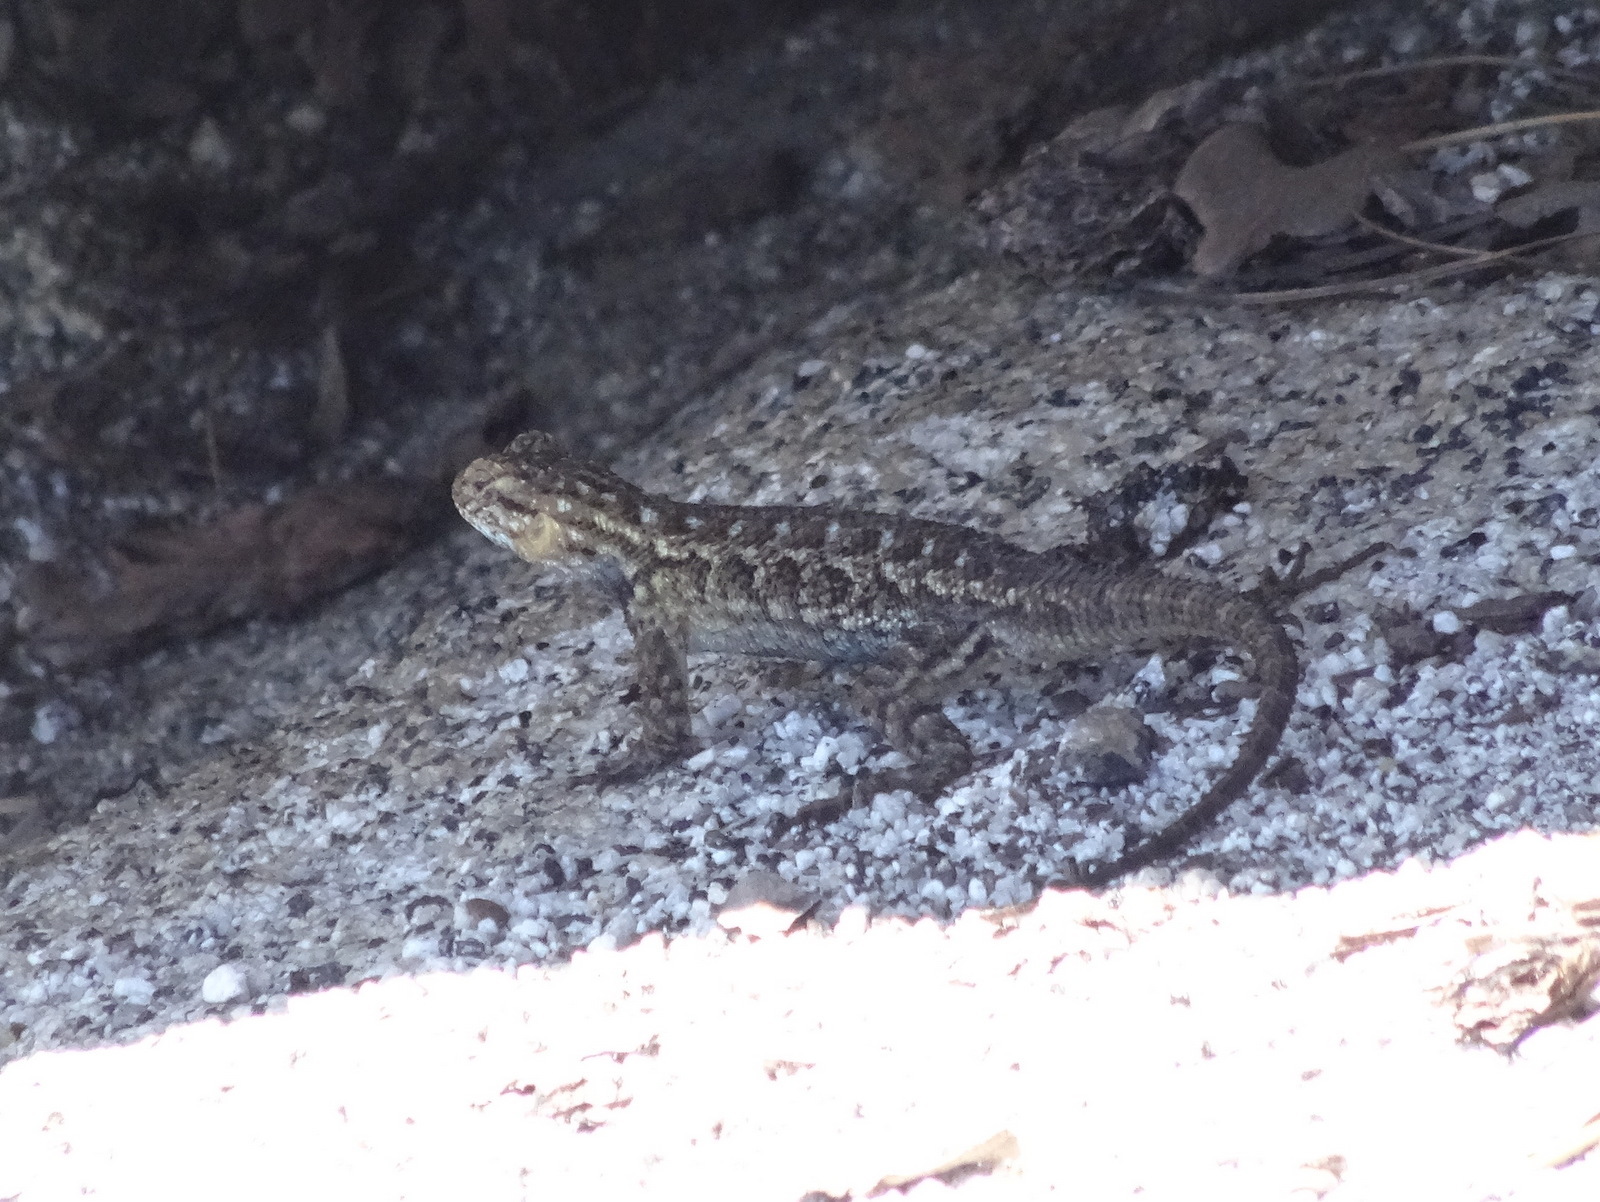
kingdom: Animalia
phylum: Chordata
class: Squamata
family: Phrynosomatidae
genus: Sceloporus
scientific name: Sceloporus occidentalis
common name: Western fence lizard
